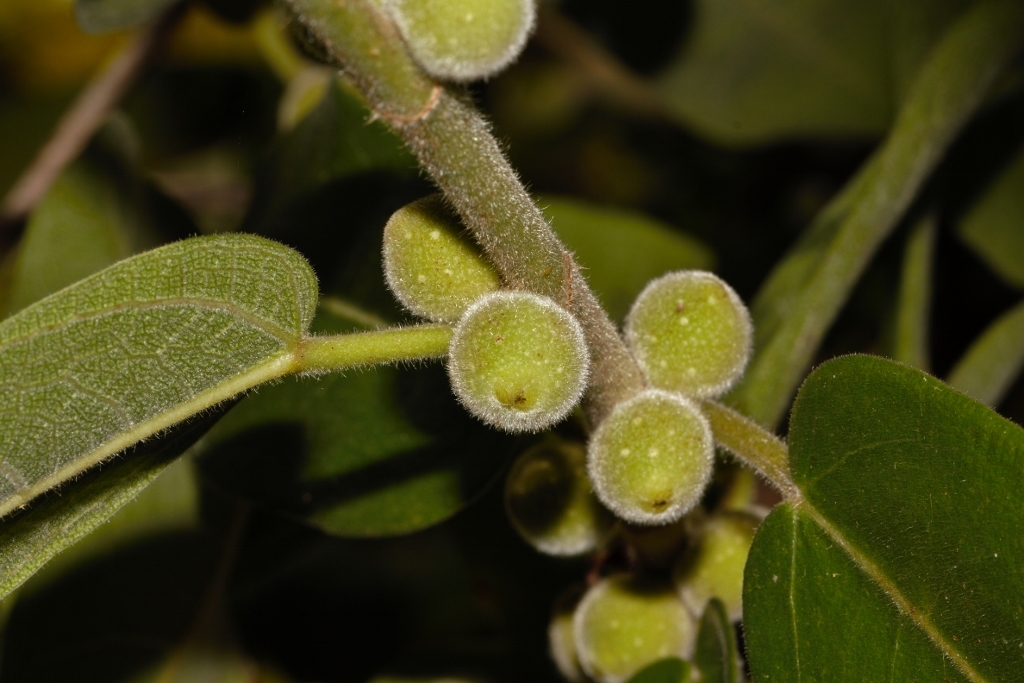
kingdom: Plantae
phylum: Tracheophyta
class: Magnoliopsida
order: Rosales
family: Moraceae
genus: Ficus
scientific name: Ficus stuhlmannii
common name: Lowveld fig
